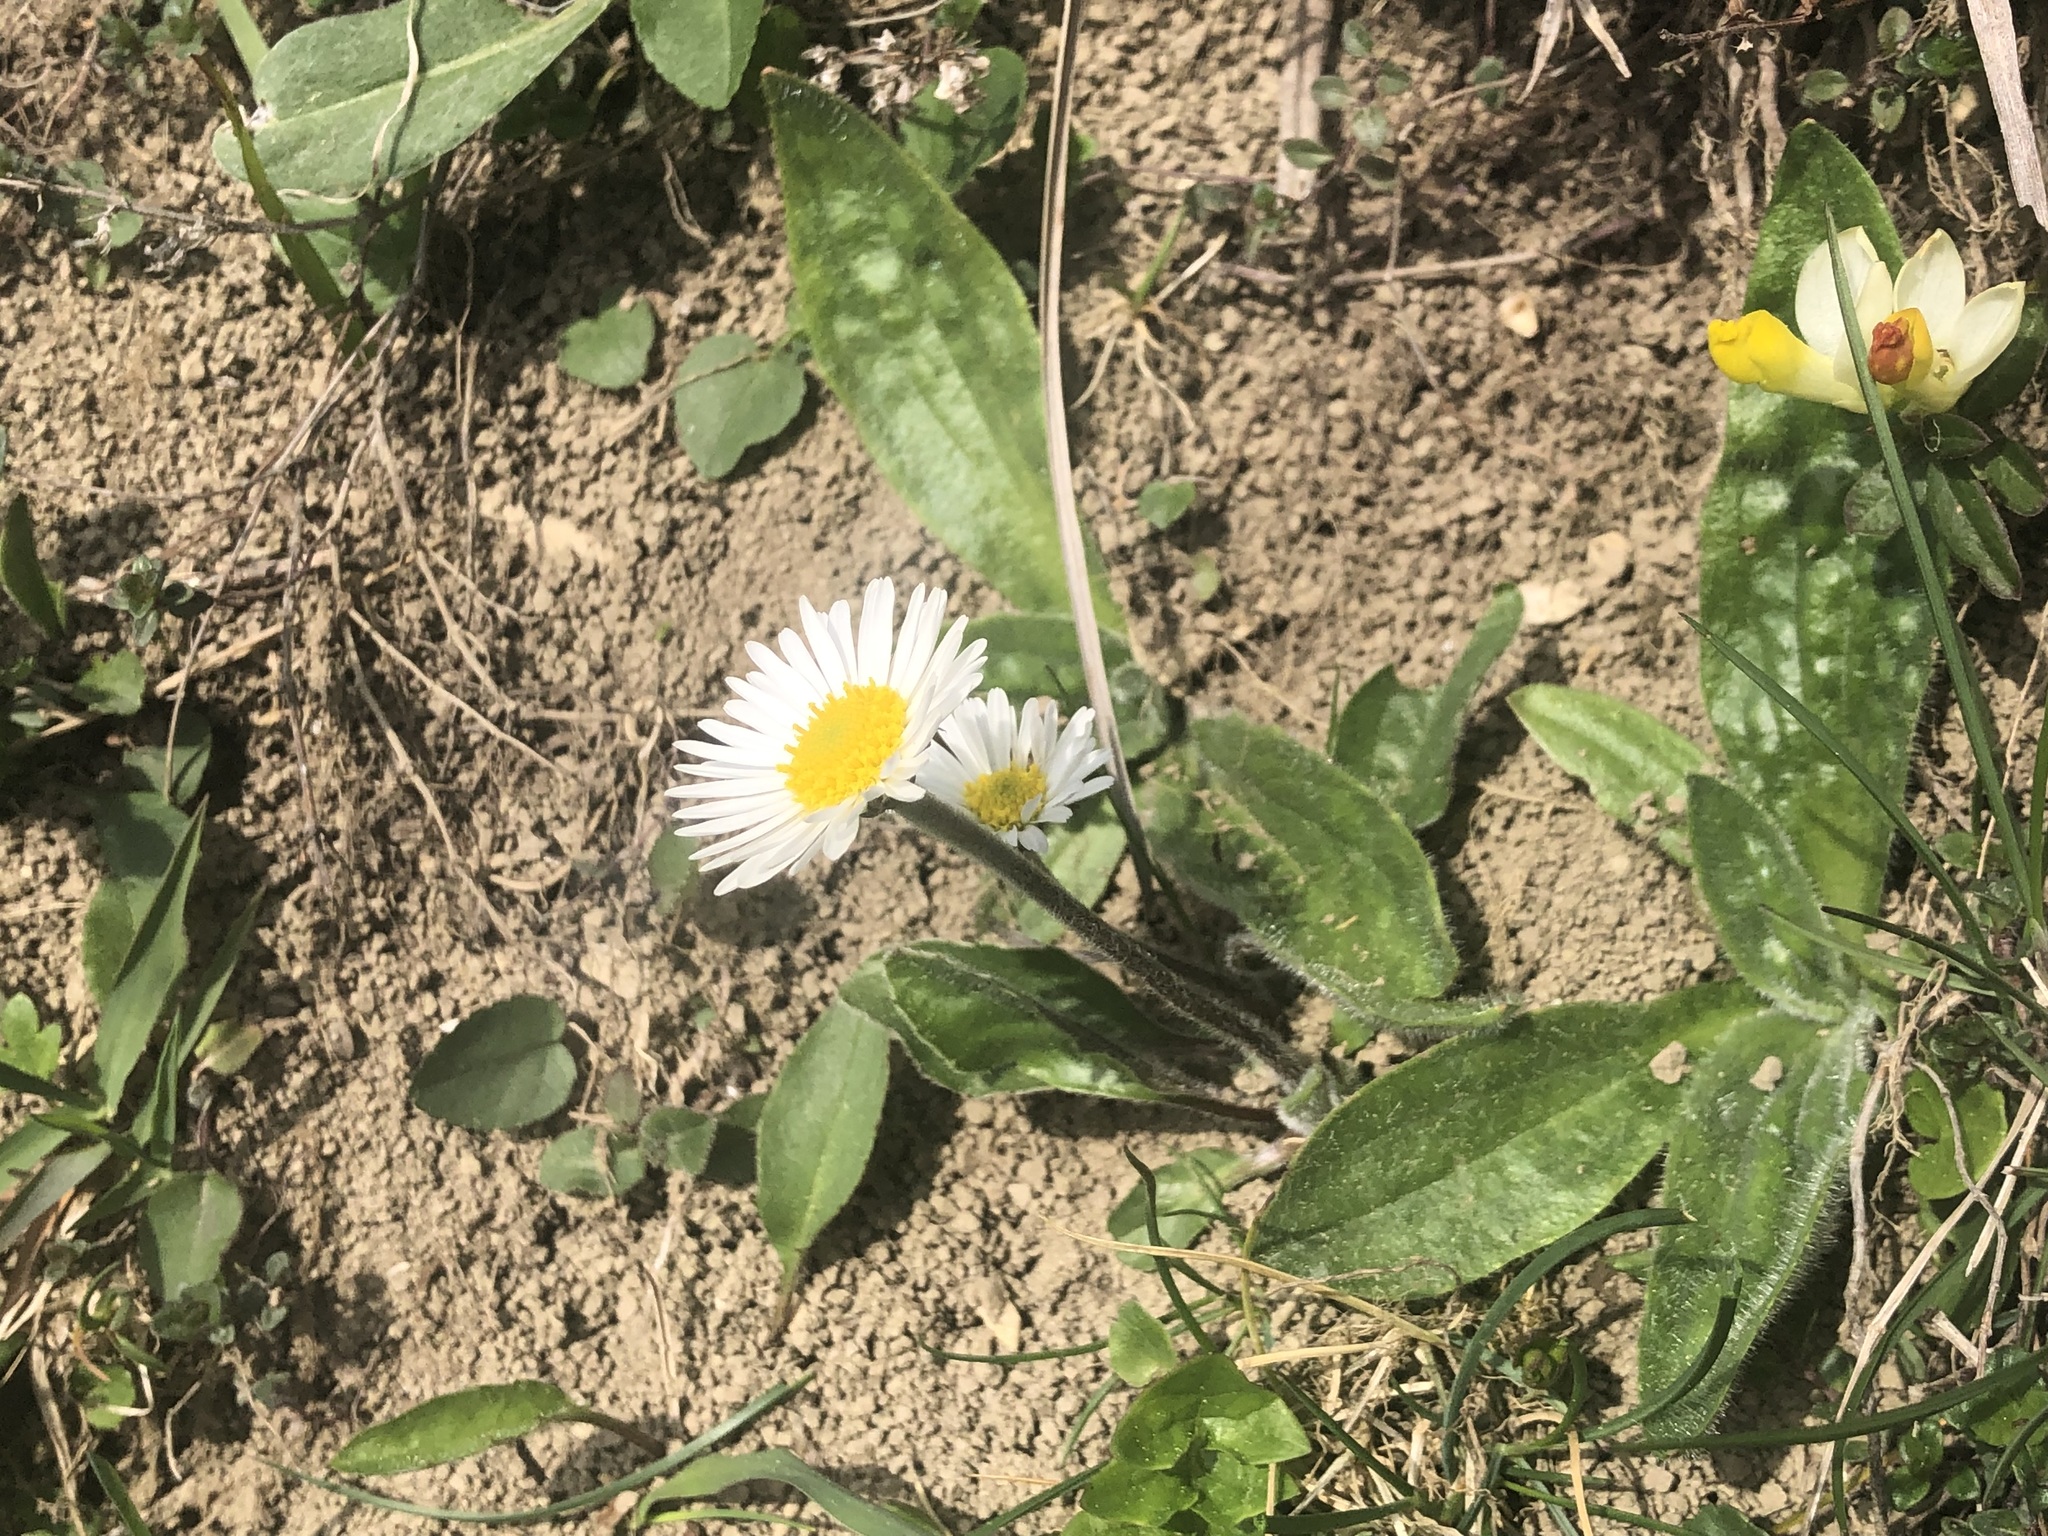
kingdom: Plantae
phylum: Tracheophyta
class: Magnoliopsida
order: Asterales
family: Asteraceae
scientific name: Asteraceae
